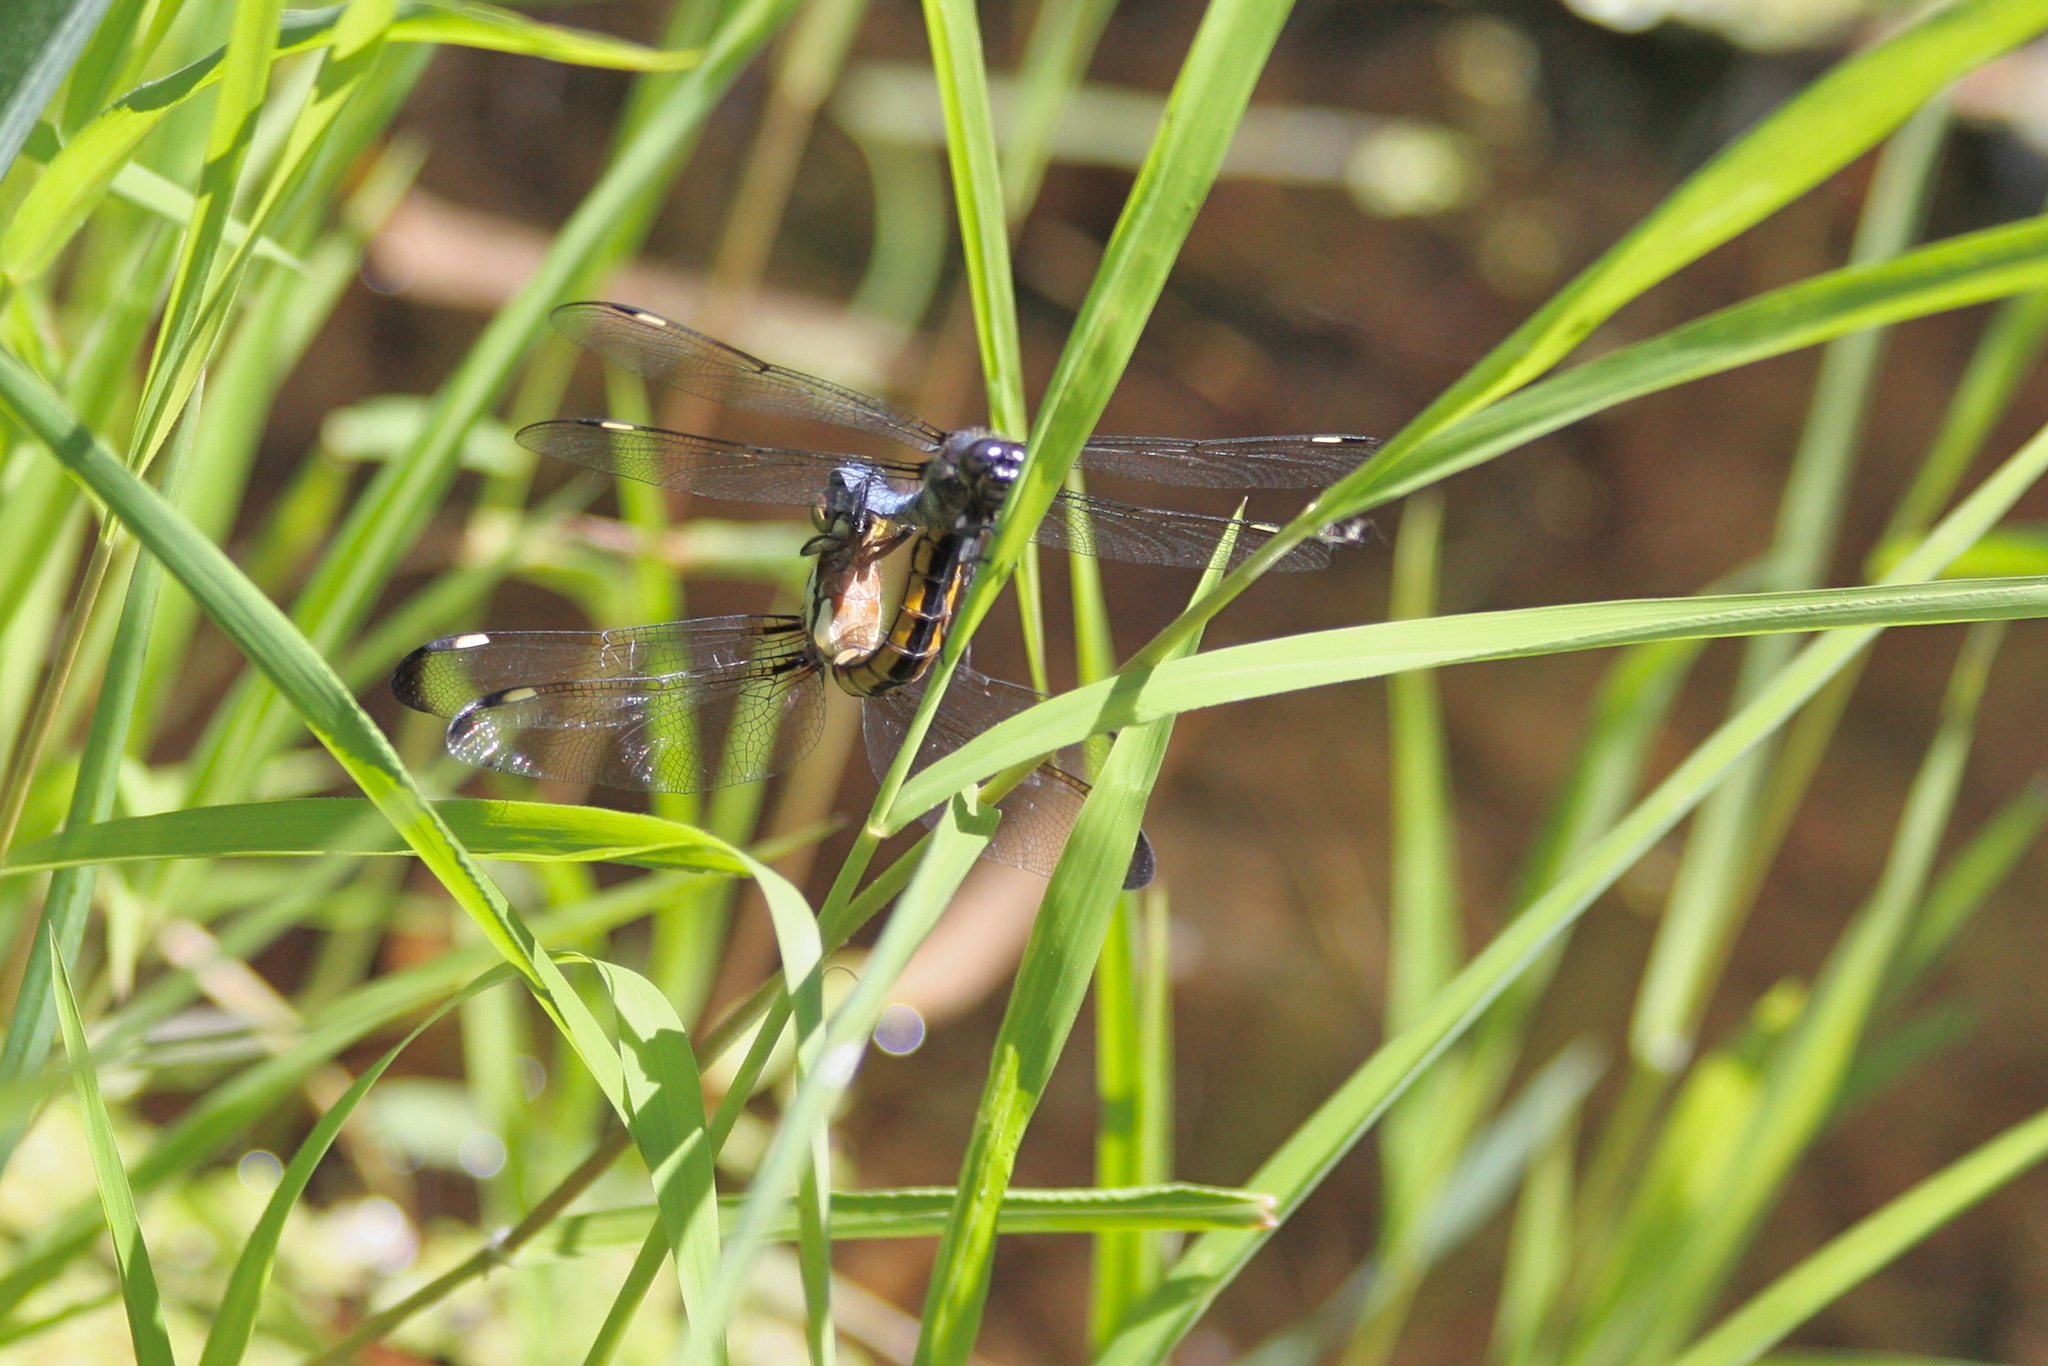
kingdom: Animalia
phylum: Arthropoda
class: Insecta
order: Odonata
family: Libellulidae
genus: Libellula
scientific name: Libellula cyanea
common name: Spangled skimmer
